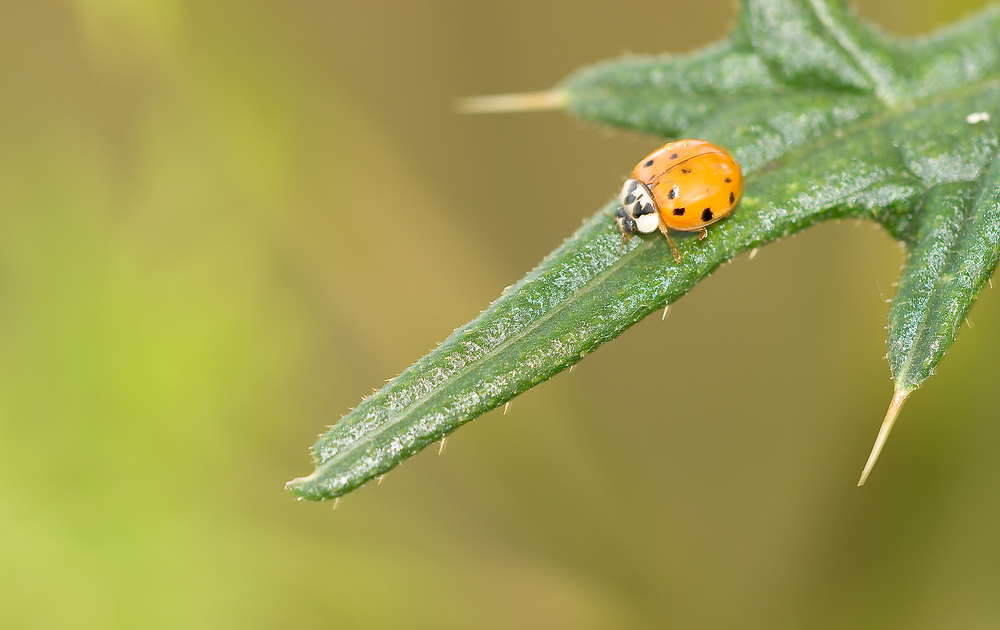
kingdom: Animalia
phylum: Arthropoda
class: Insecta
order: Coleoptera
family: Coccinellidae
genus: Harmonia
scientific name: Harmonia axyridis
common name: Harlequin ladybird
